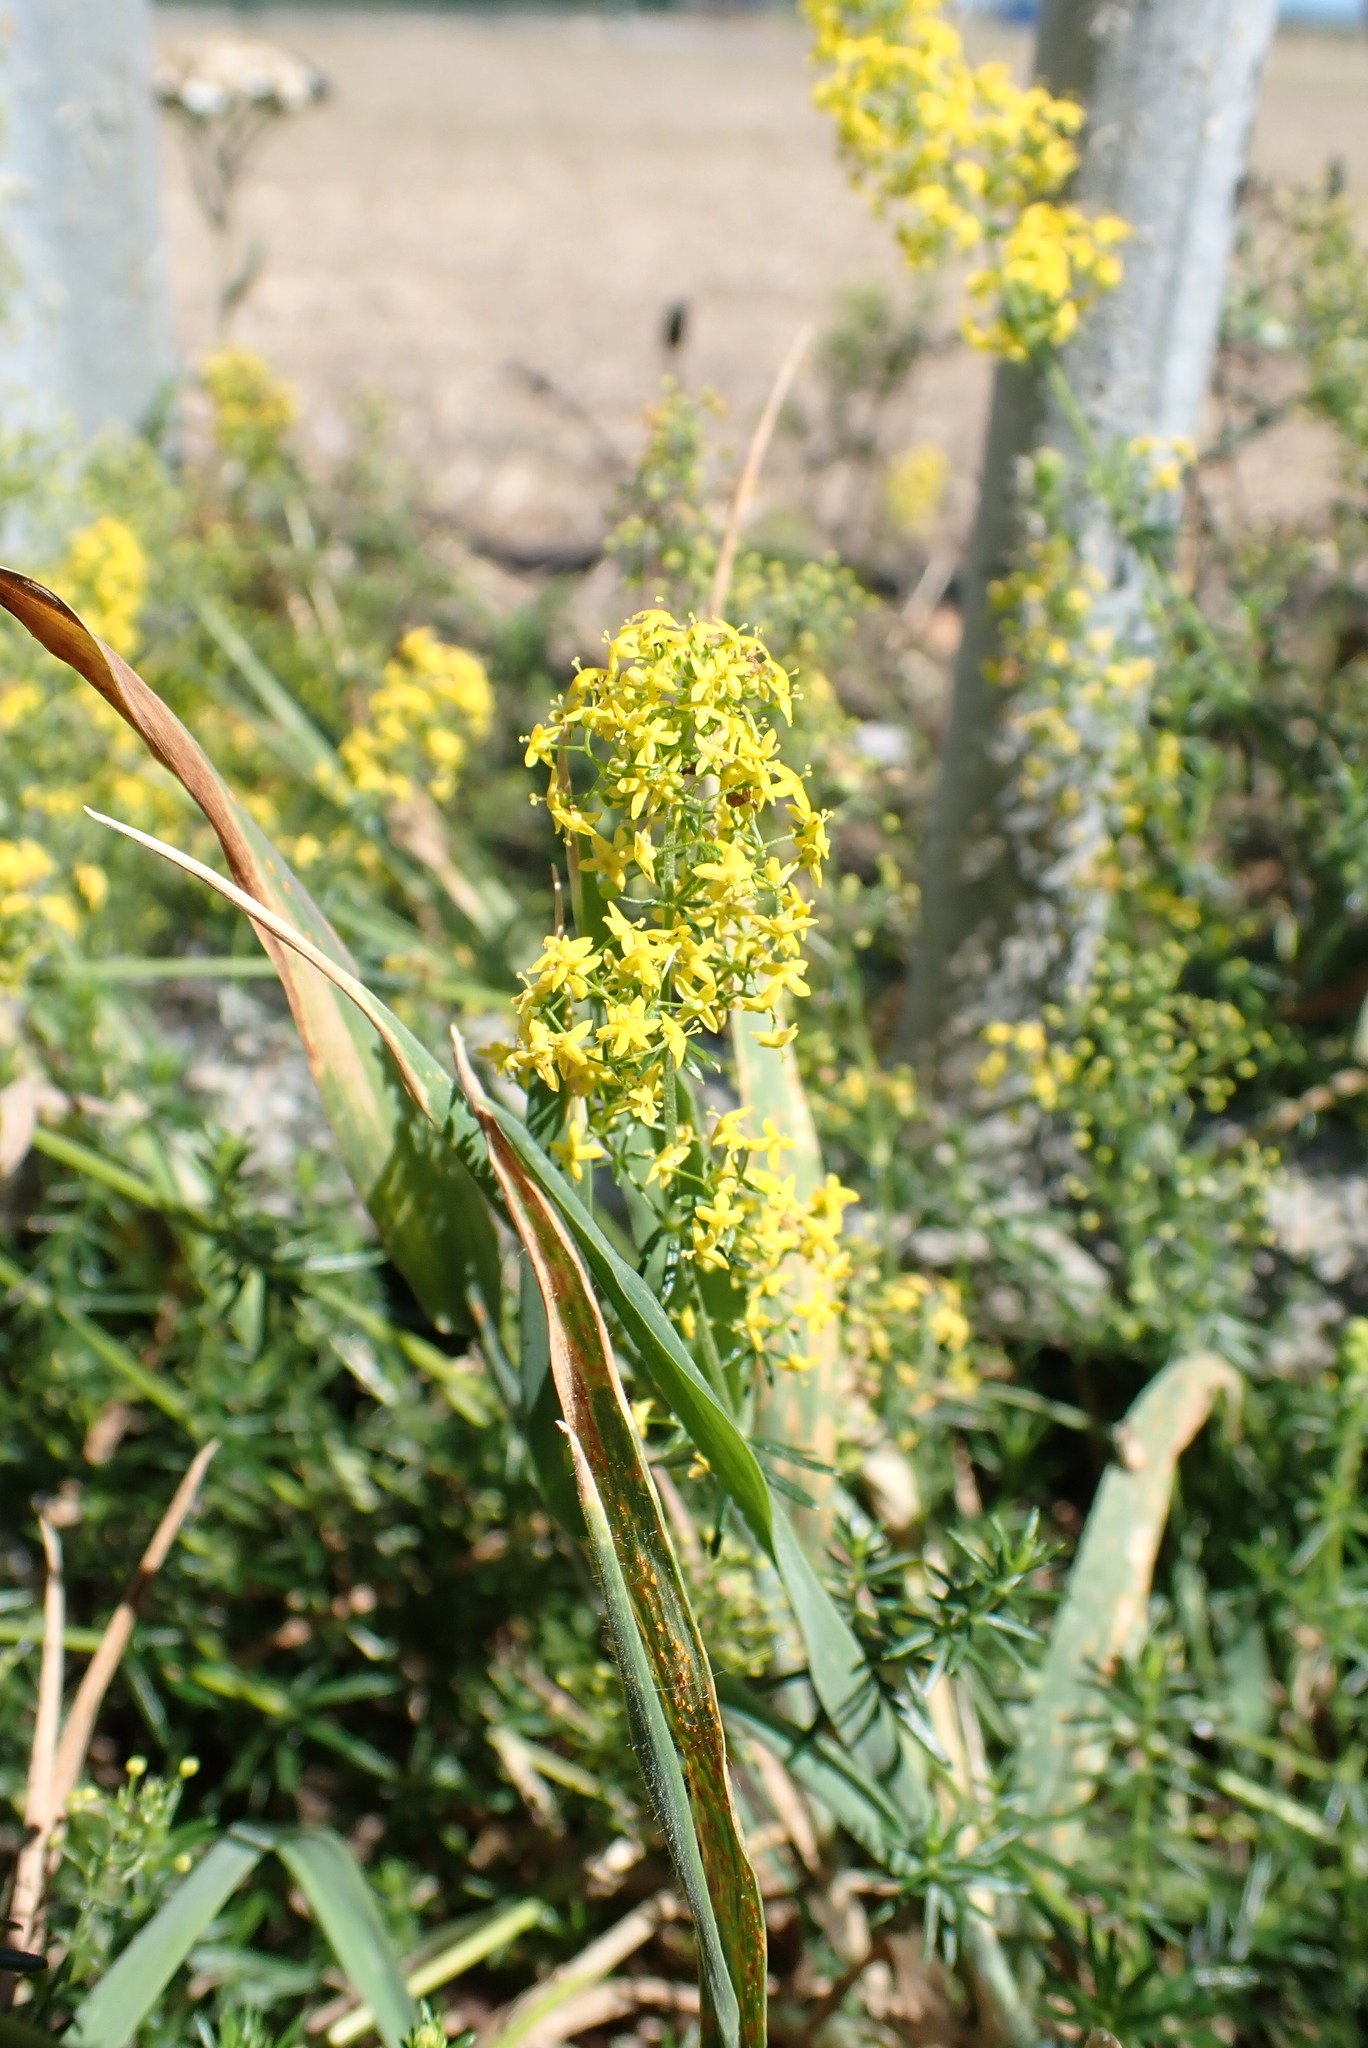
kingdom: Plantae
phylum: Tracheophyta
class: Magnoliopsida
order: Gentianales
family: Rubiaceae
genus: Galium
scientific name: Galium verum
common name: Lady's bedstraw
